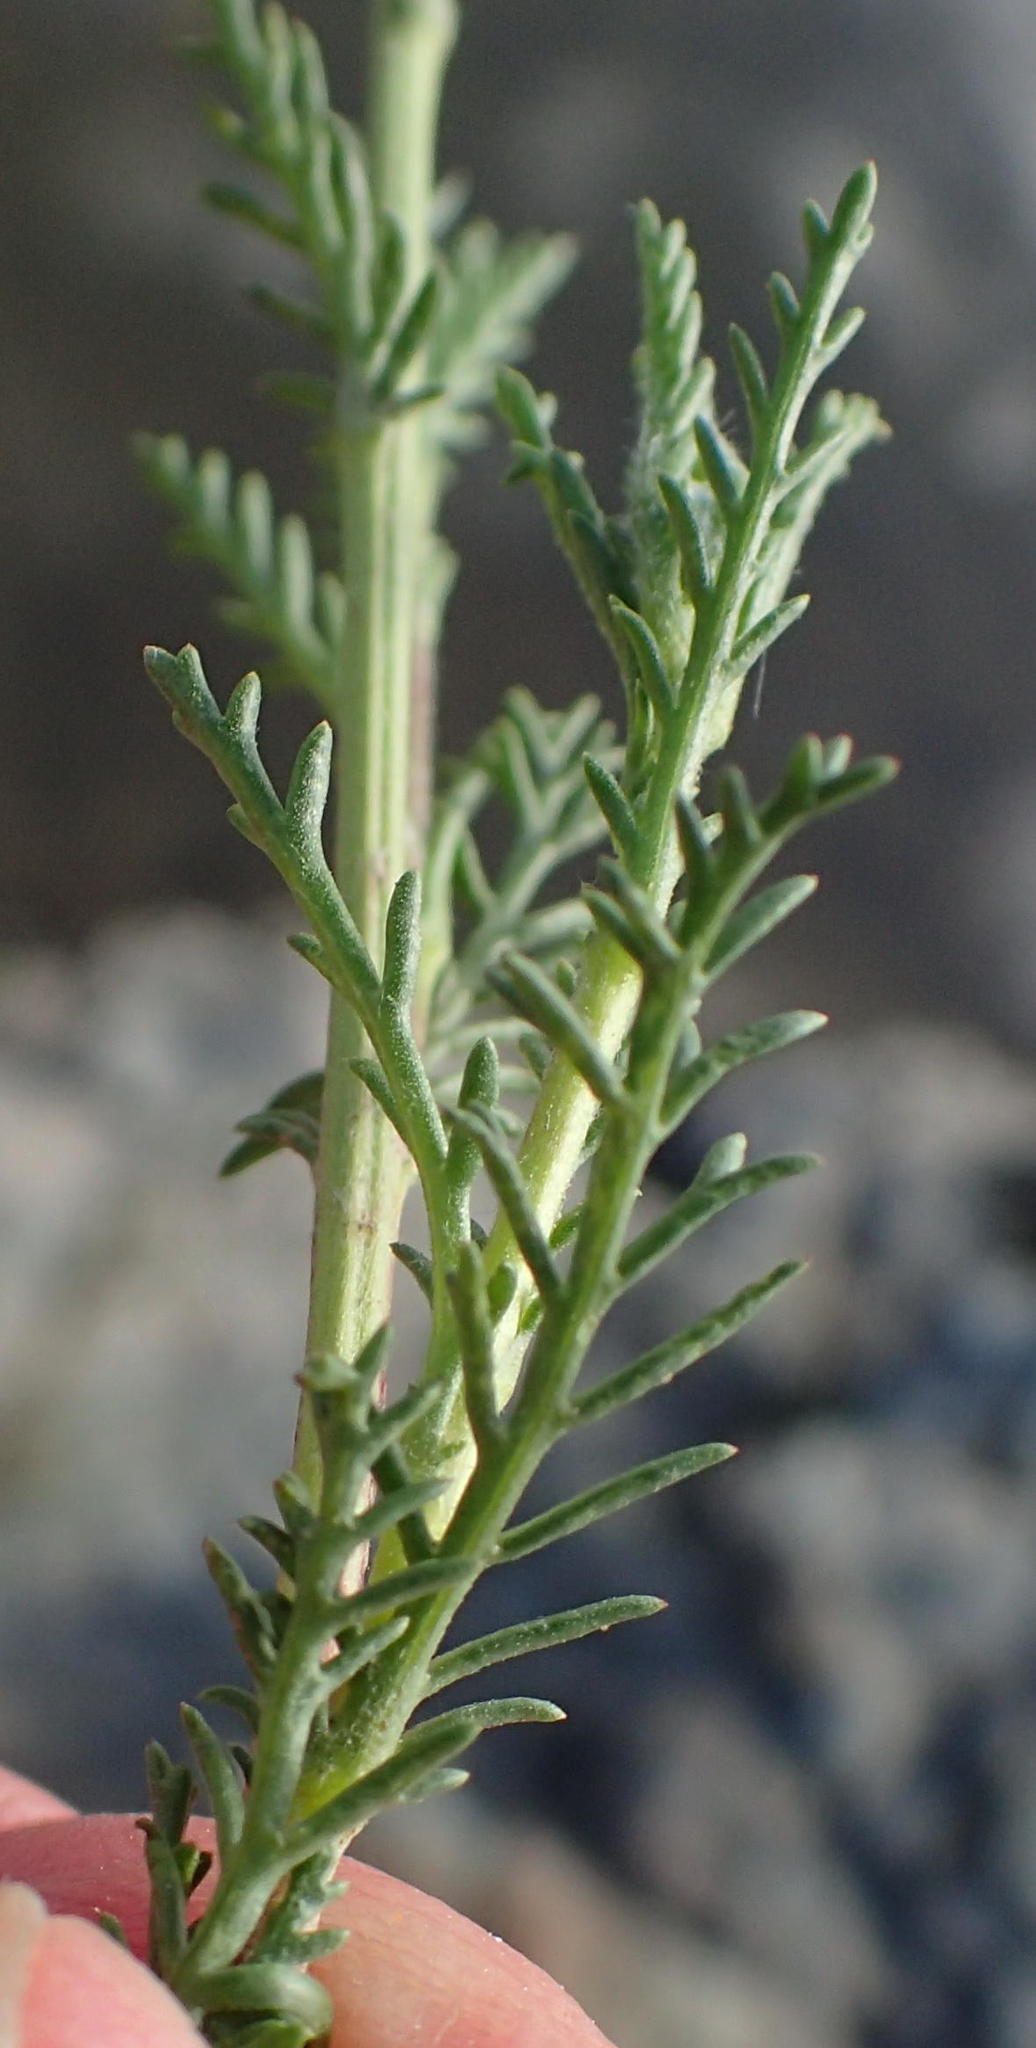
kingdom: Plantae
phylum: Tracheophyta
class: Magnoliopsida
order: Asterales
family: Asteraceae
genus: Senecio
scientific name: Senecio achilleifolius
